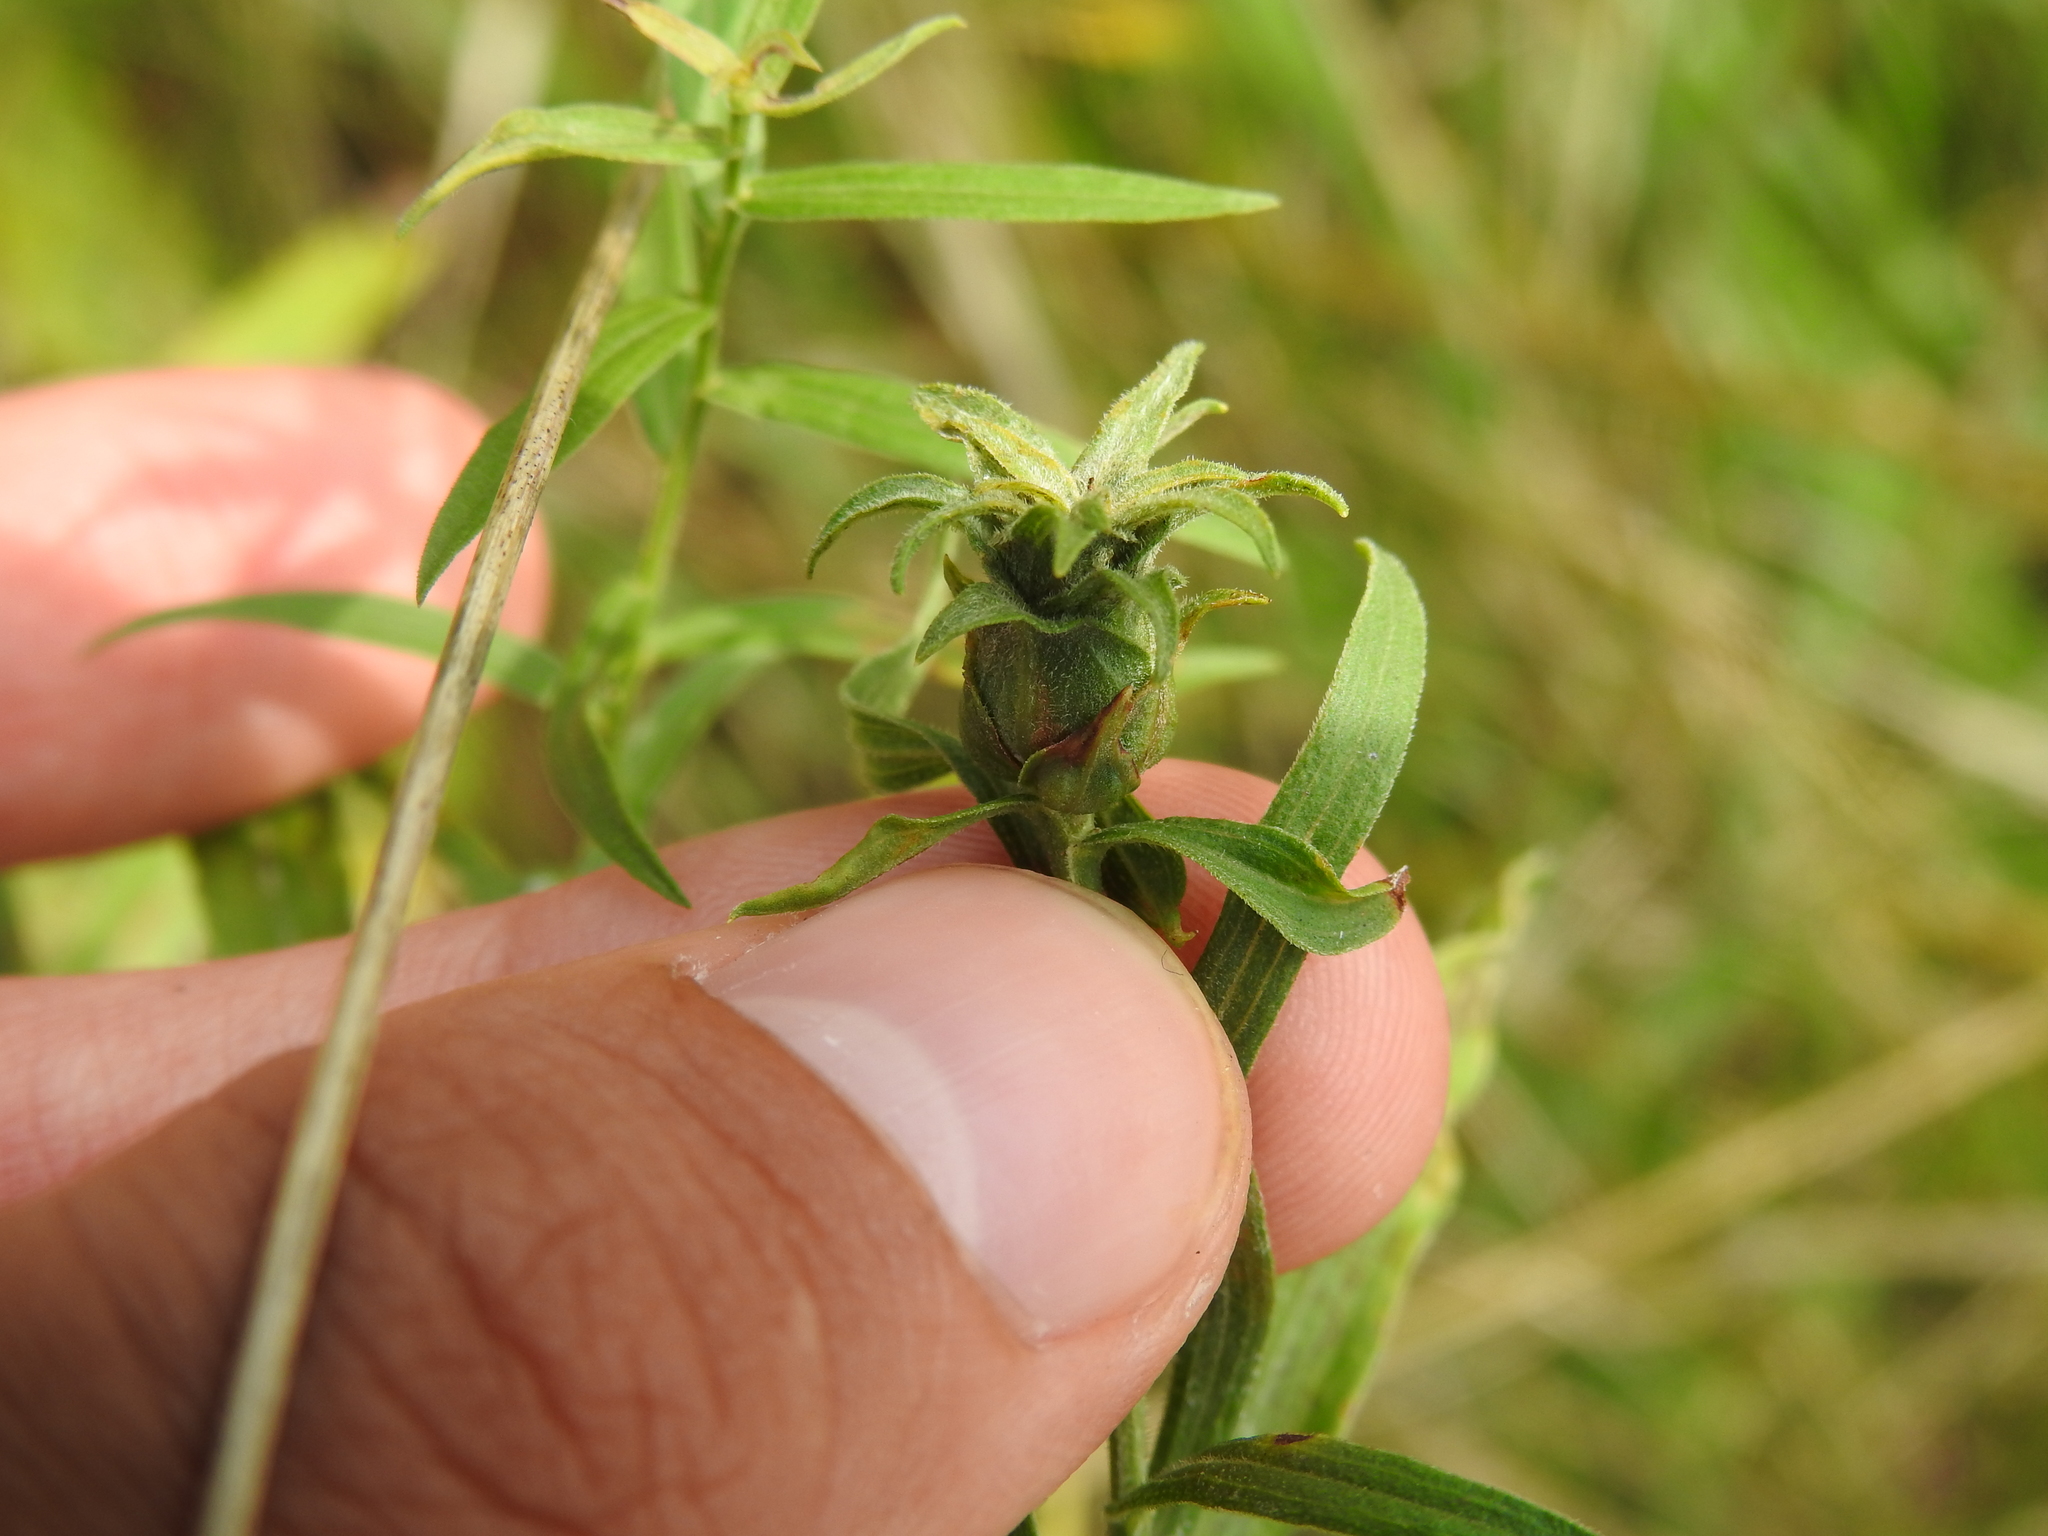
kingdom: Animalia
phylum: Arthropoda
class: Insecta
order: Diptera
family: Cecidomyiidae
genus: Asphondylia
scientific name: Asphondylia pseudorosa
